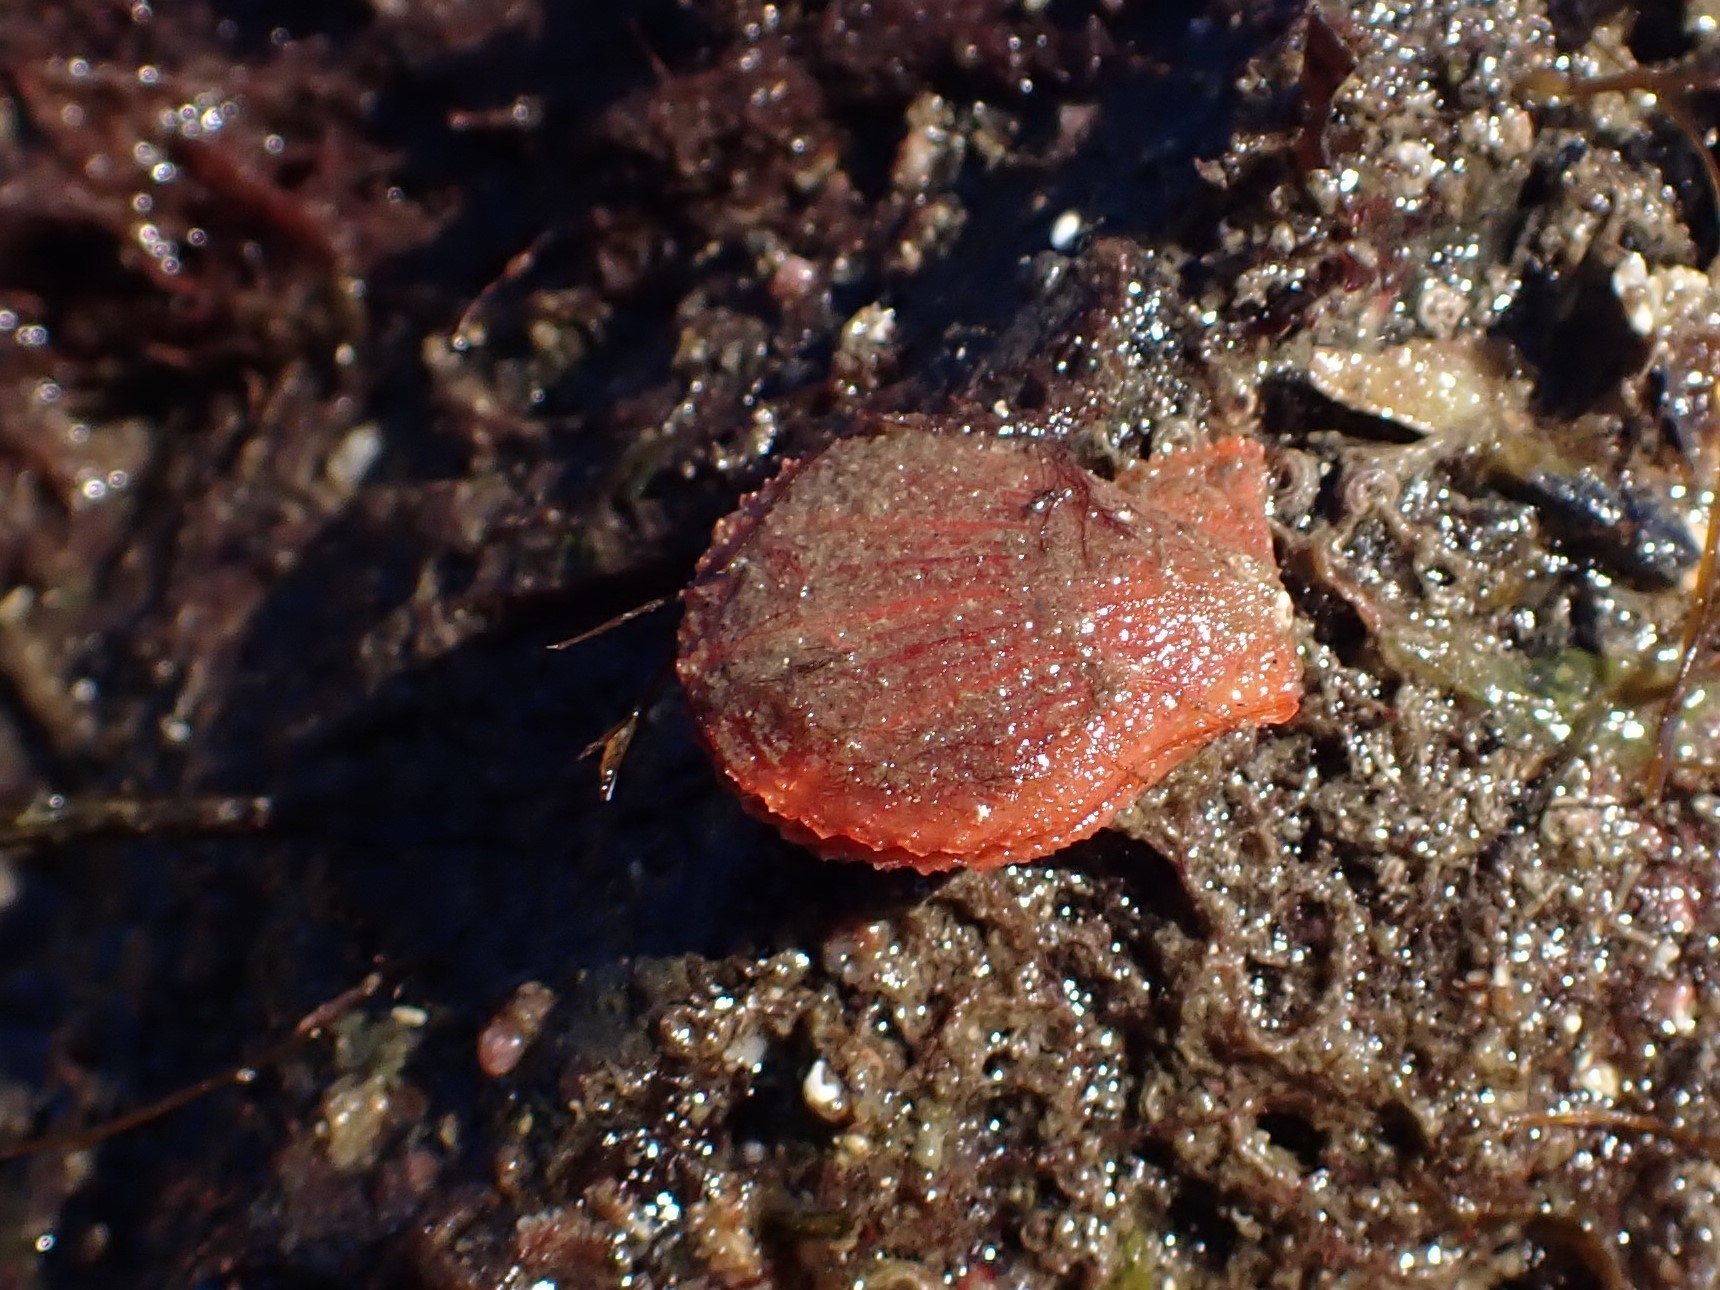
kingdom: Animalia
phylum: Mollusca
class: Bivalvia
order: Pectinida
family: Pectinidae
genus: Chlamys
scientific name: Chlamys hastata
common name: Spear scallop
